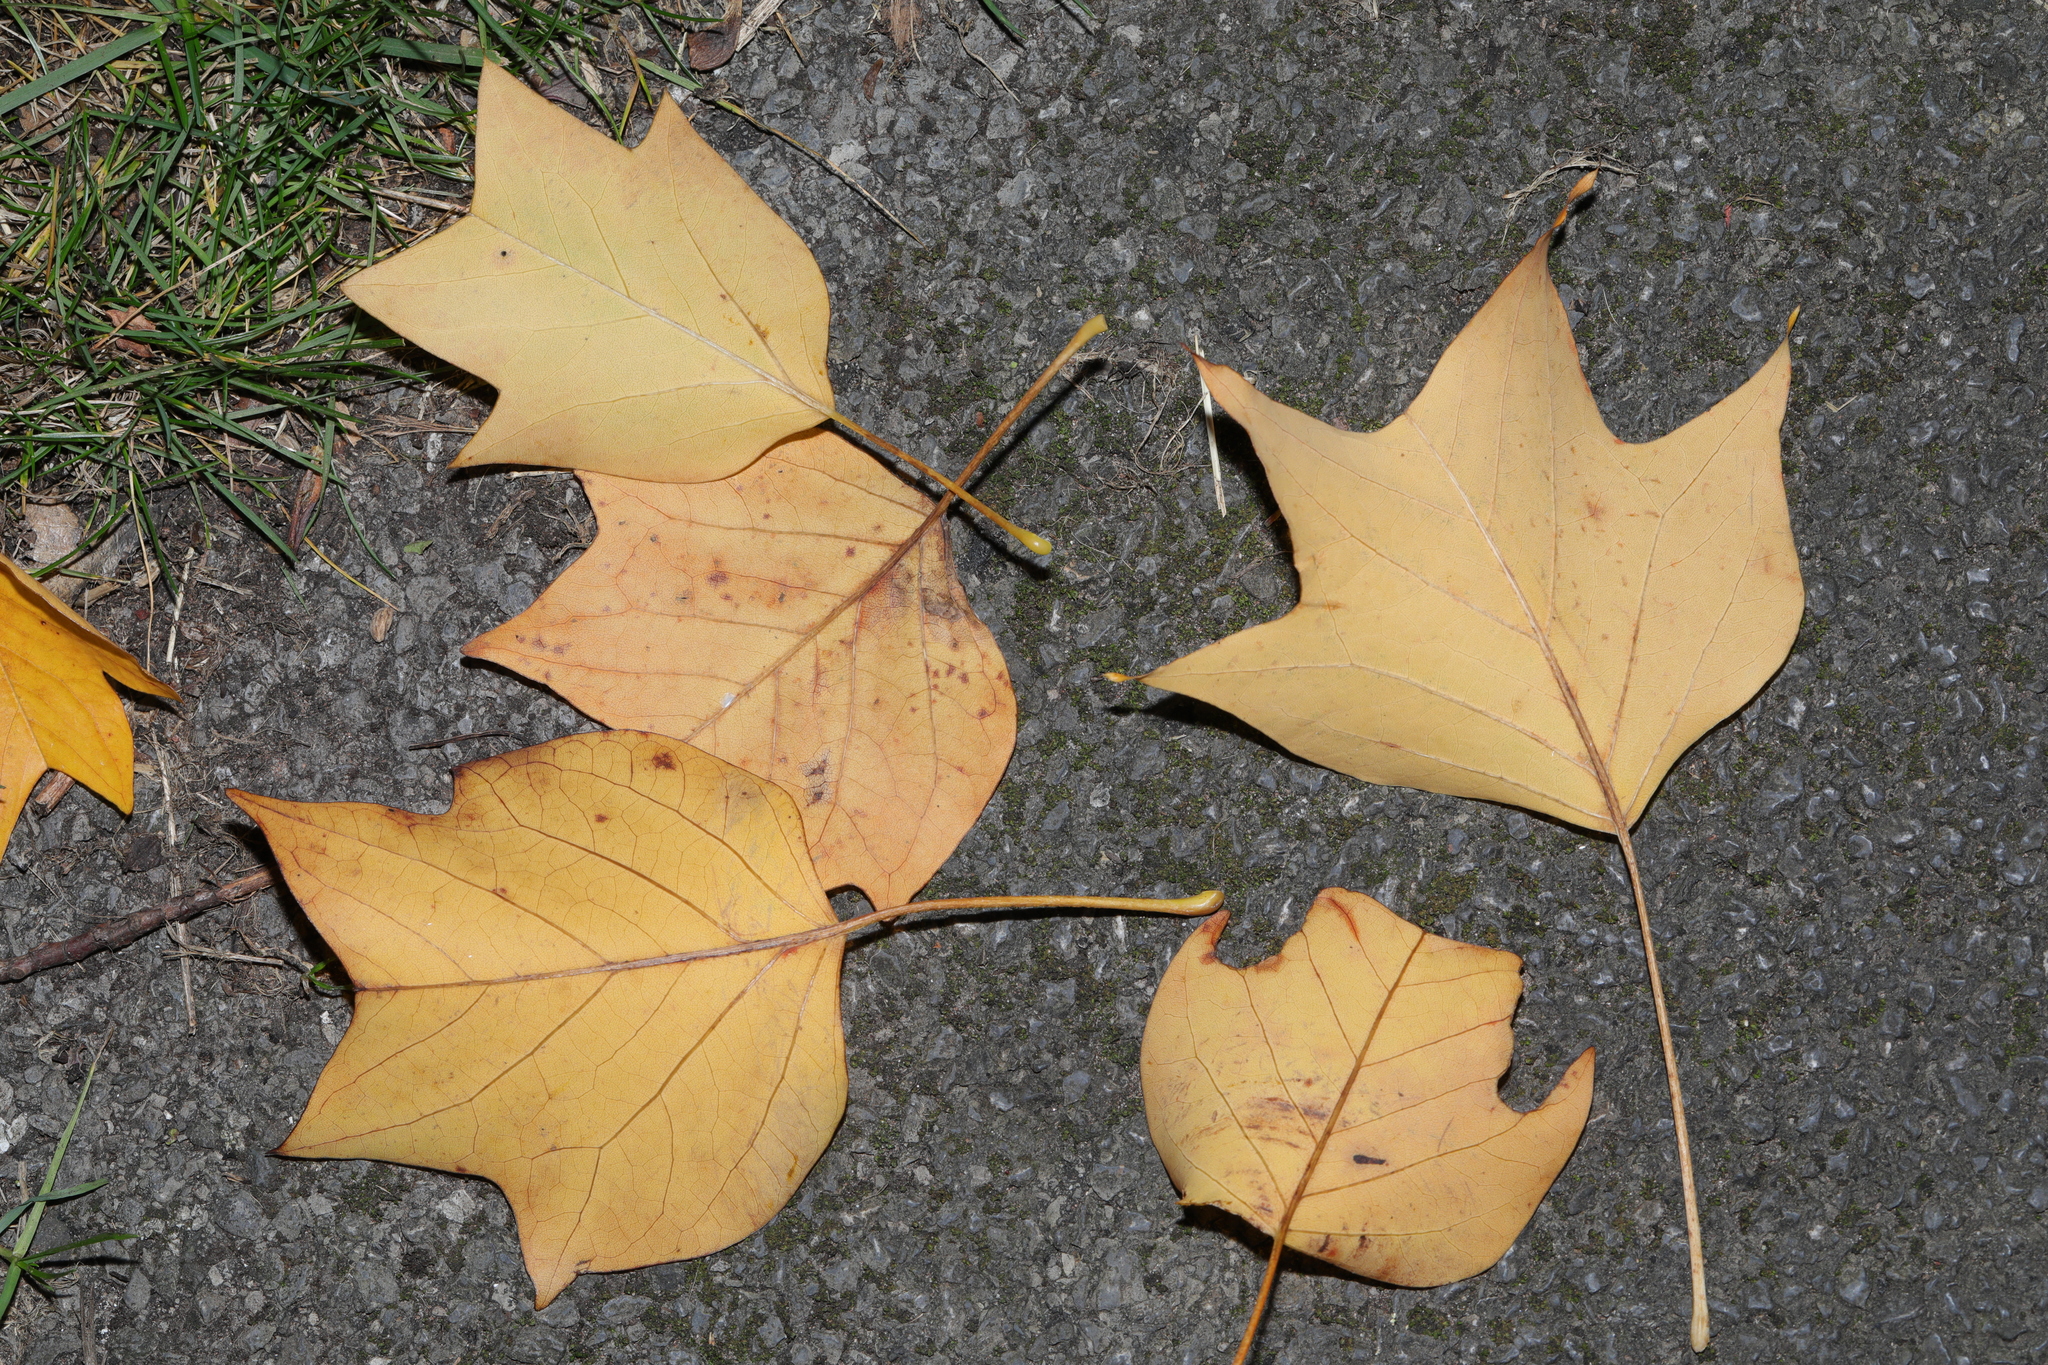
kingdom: Plantae
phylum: Tracheophyta
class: Magnoliopsida
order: Magnoliales
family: Magnoliaceae
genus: Liriodendron
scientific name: Liriodendron tulipifera
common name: Tulip tree
